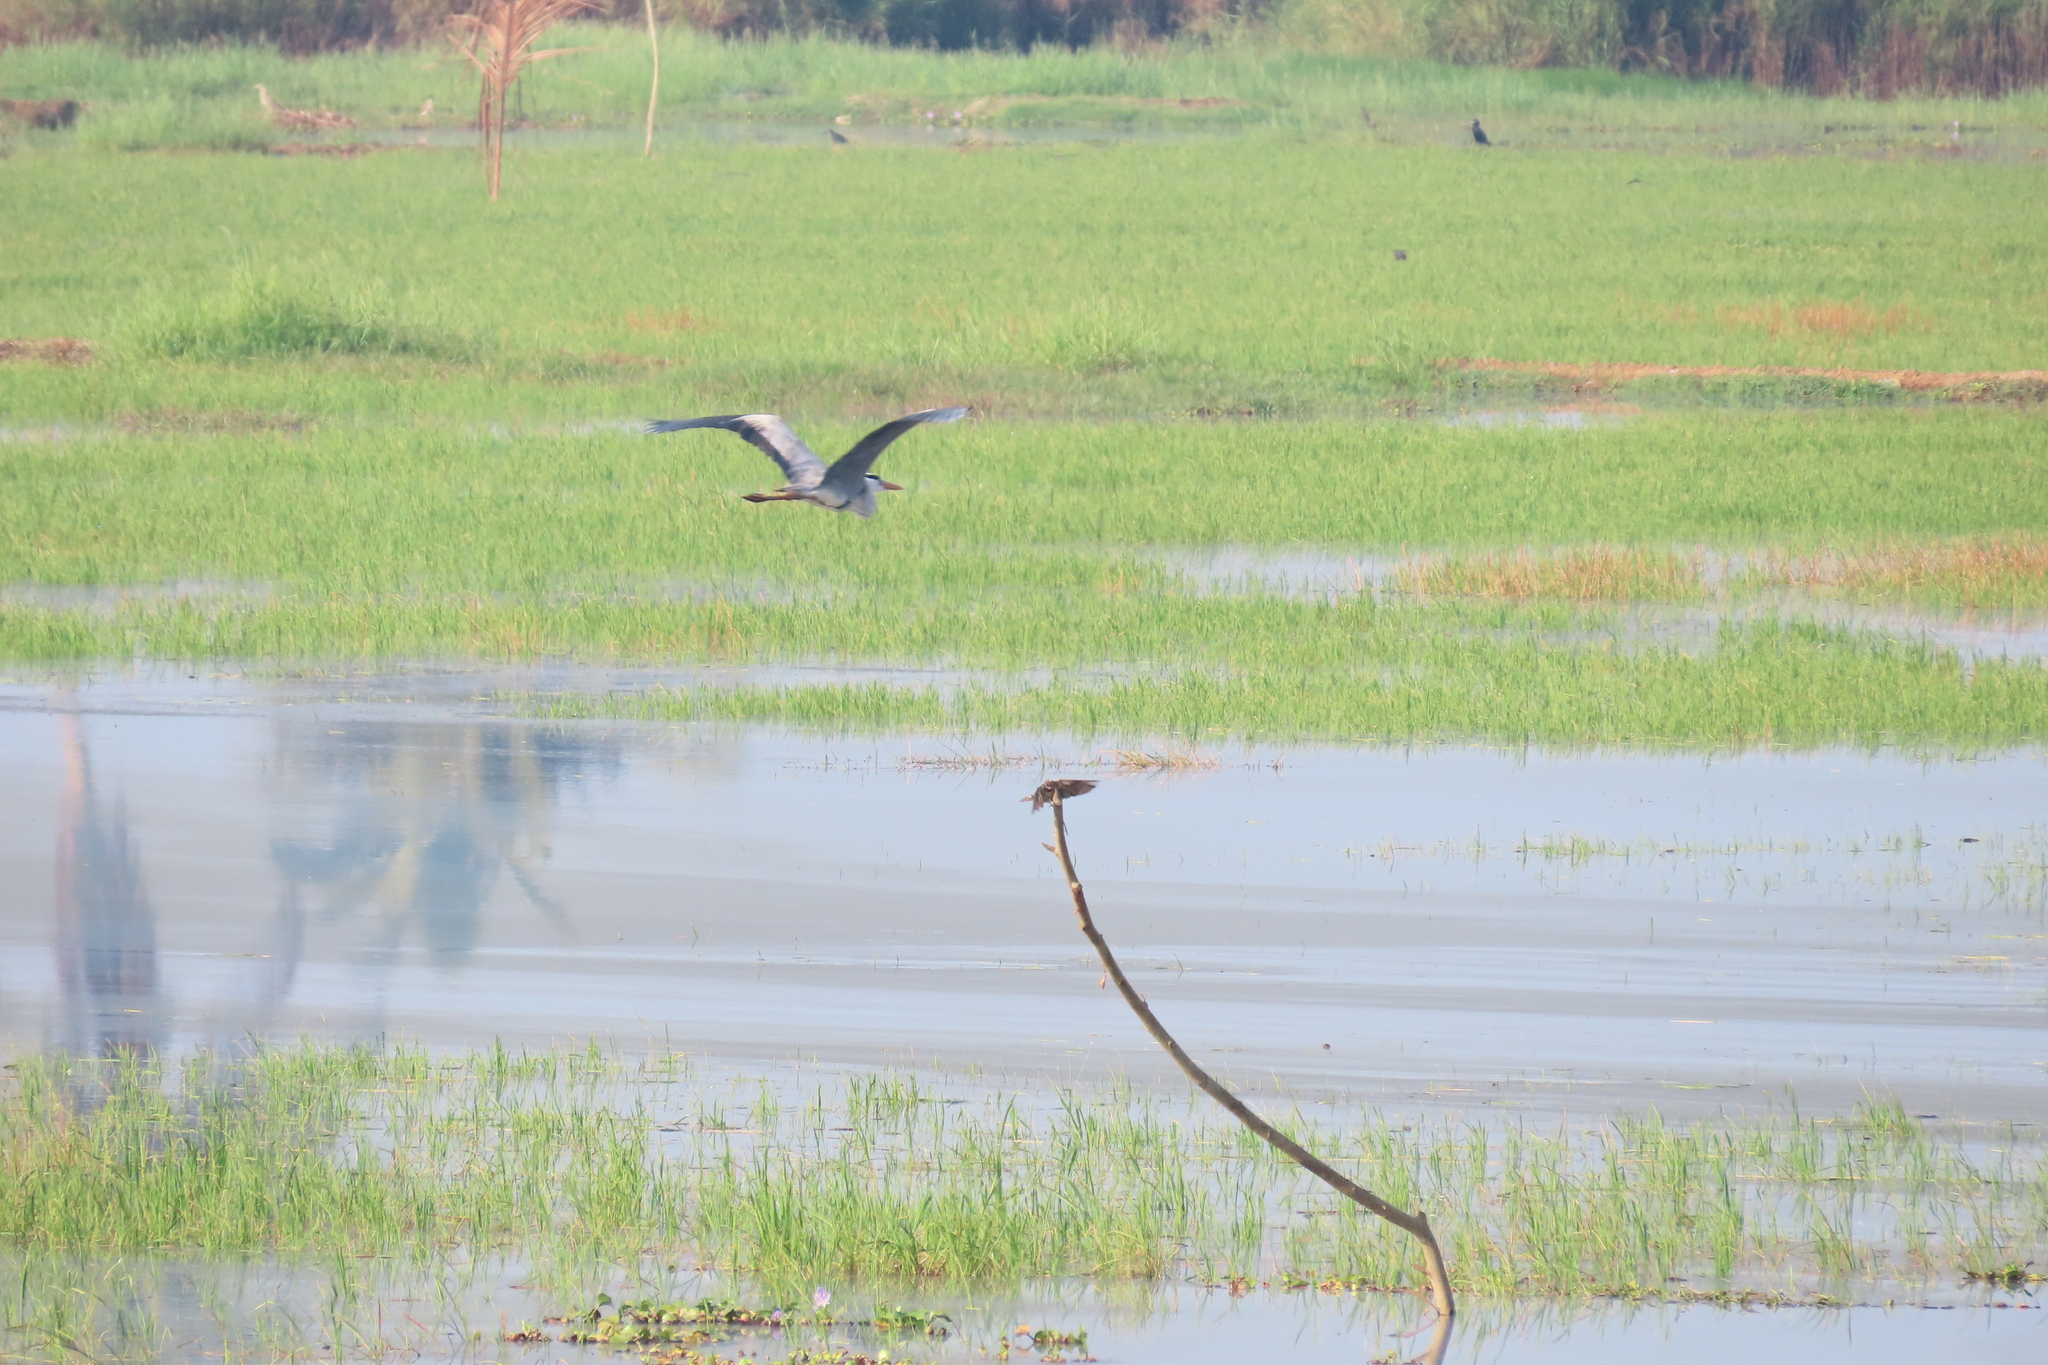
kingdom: Animalia
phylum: Chordata
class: Aves
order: Pelecaniformes
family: Ardeidae
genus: Ardea
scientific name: Ardea cinerea
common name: Grey heron
